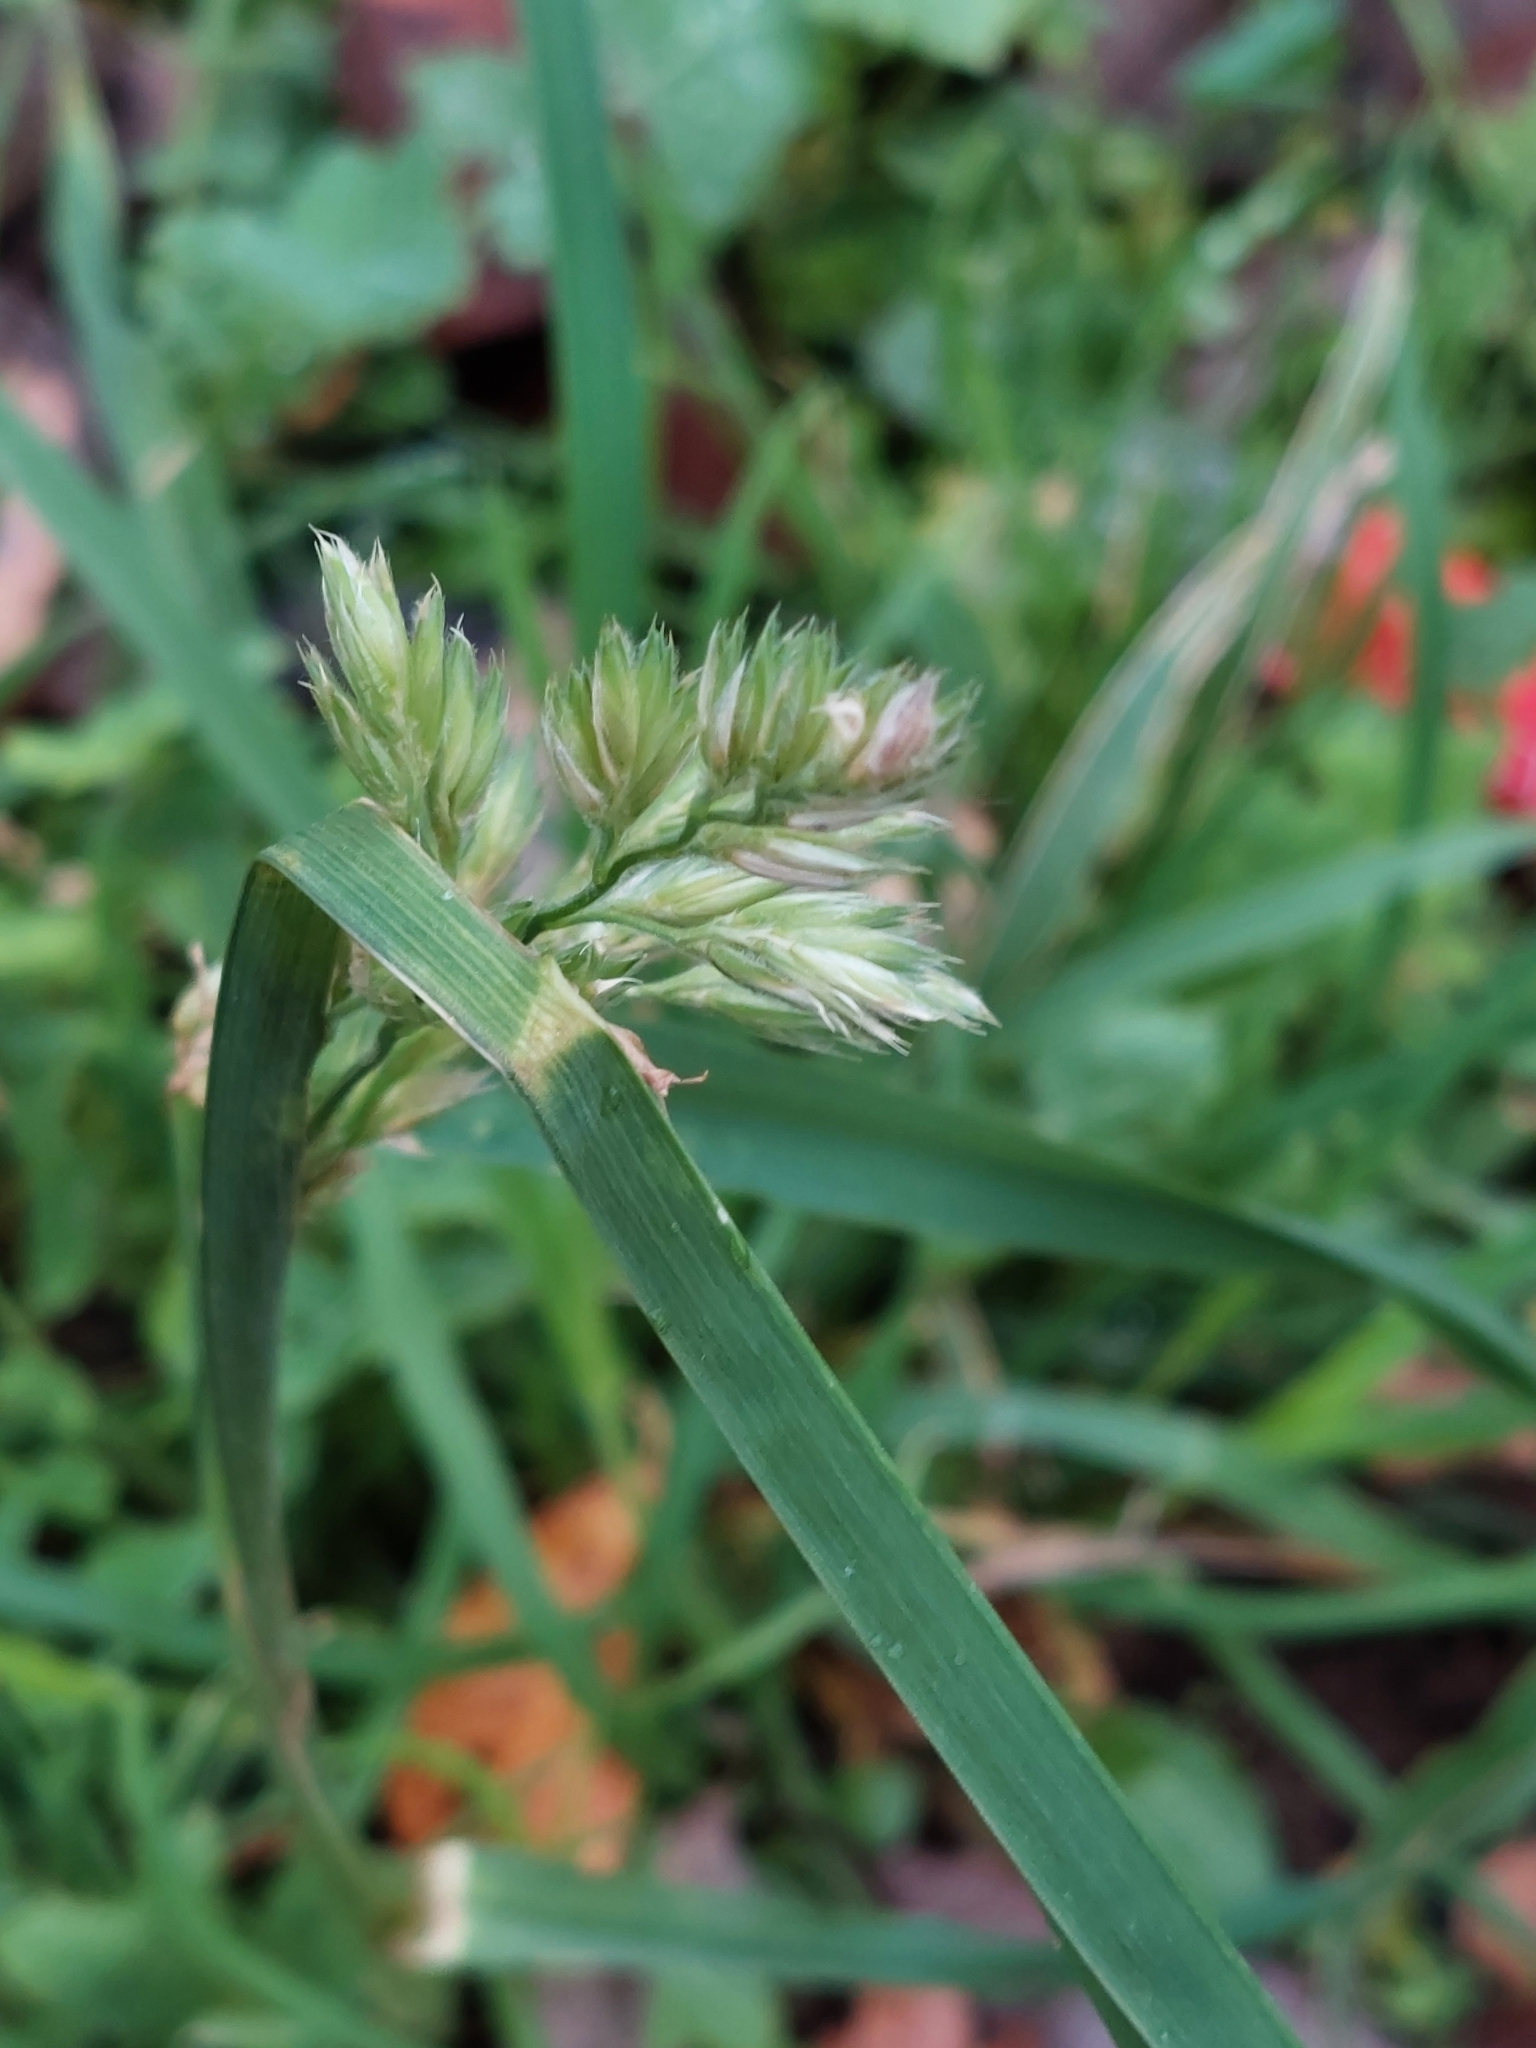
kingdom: Plantae
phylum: Tracheophyta
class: Liliopsida
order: Poales
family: Poaceae
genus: Dactylis
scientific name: Dactylis glomerata
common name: Orchardgrass
